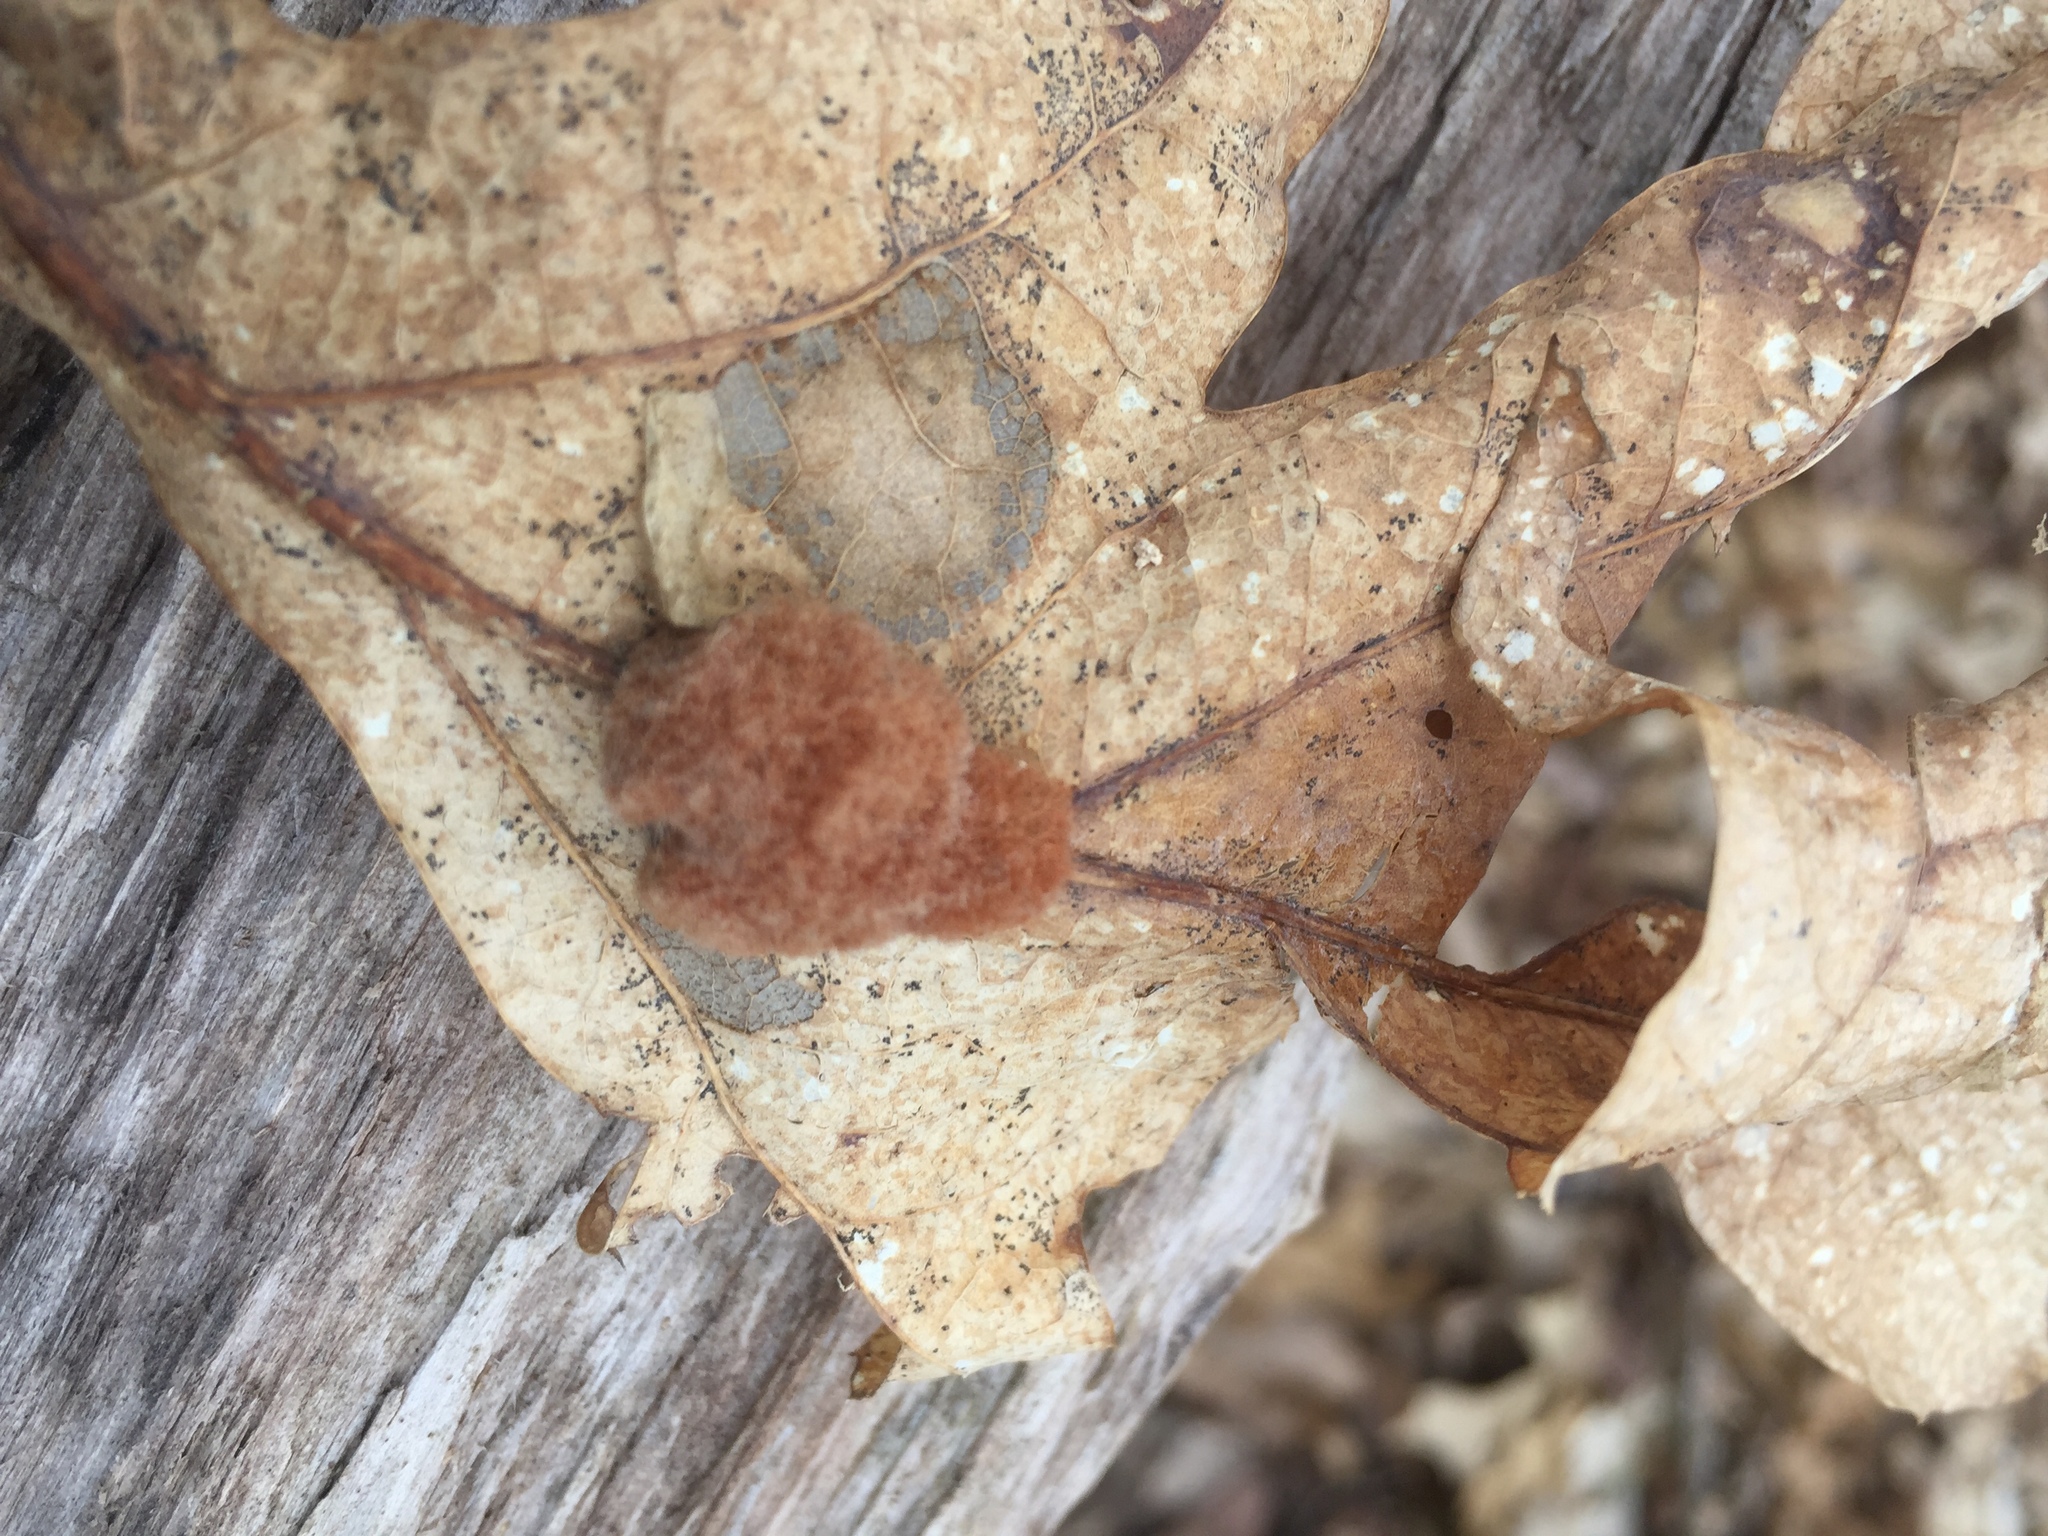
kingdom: Animalia
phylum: Arthropoda
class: Insecta
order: Hymenoptera
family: Cynipidae
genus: Andricus
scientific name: Andricus quercusflocci
